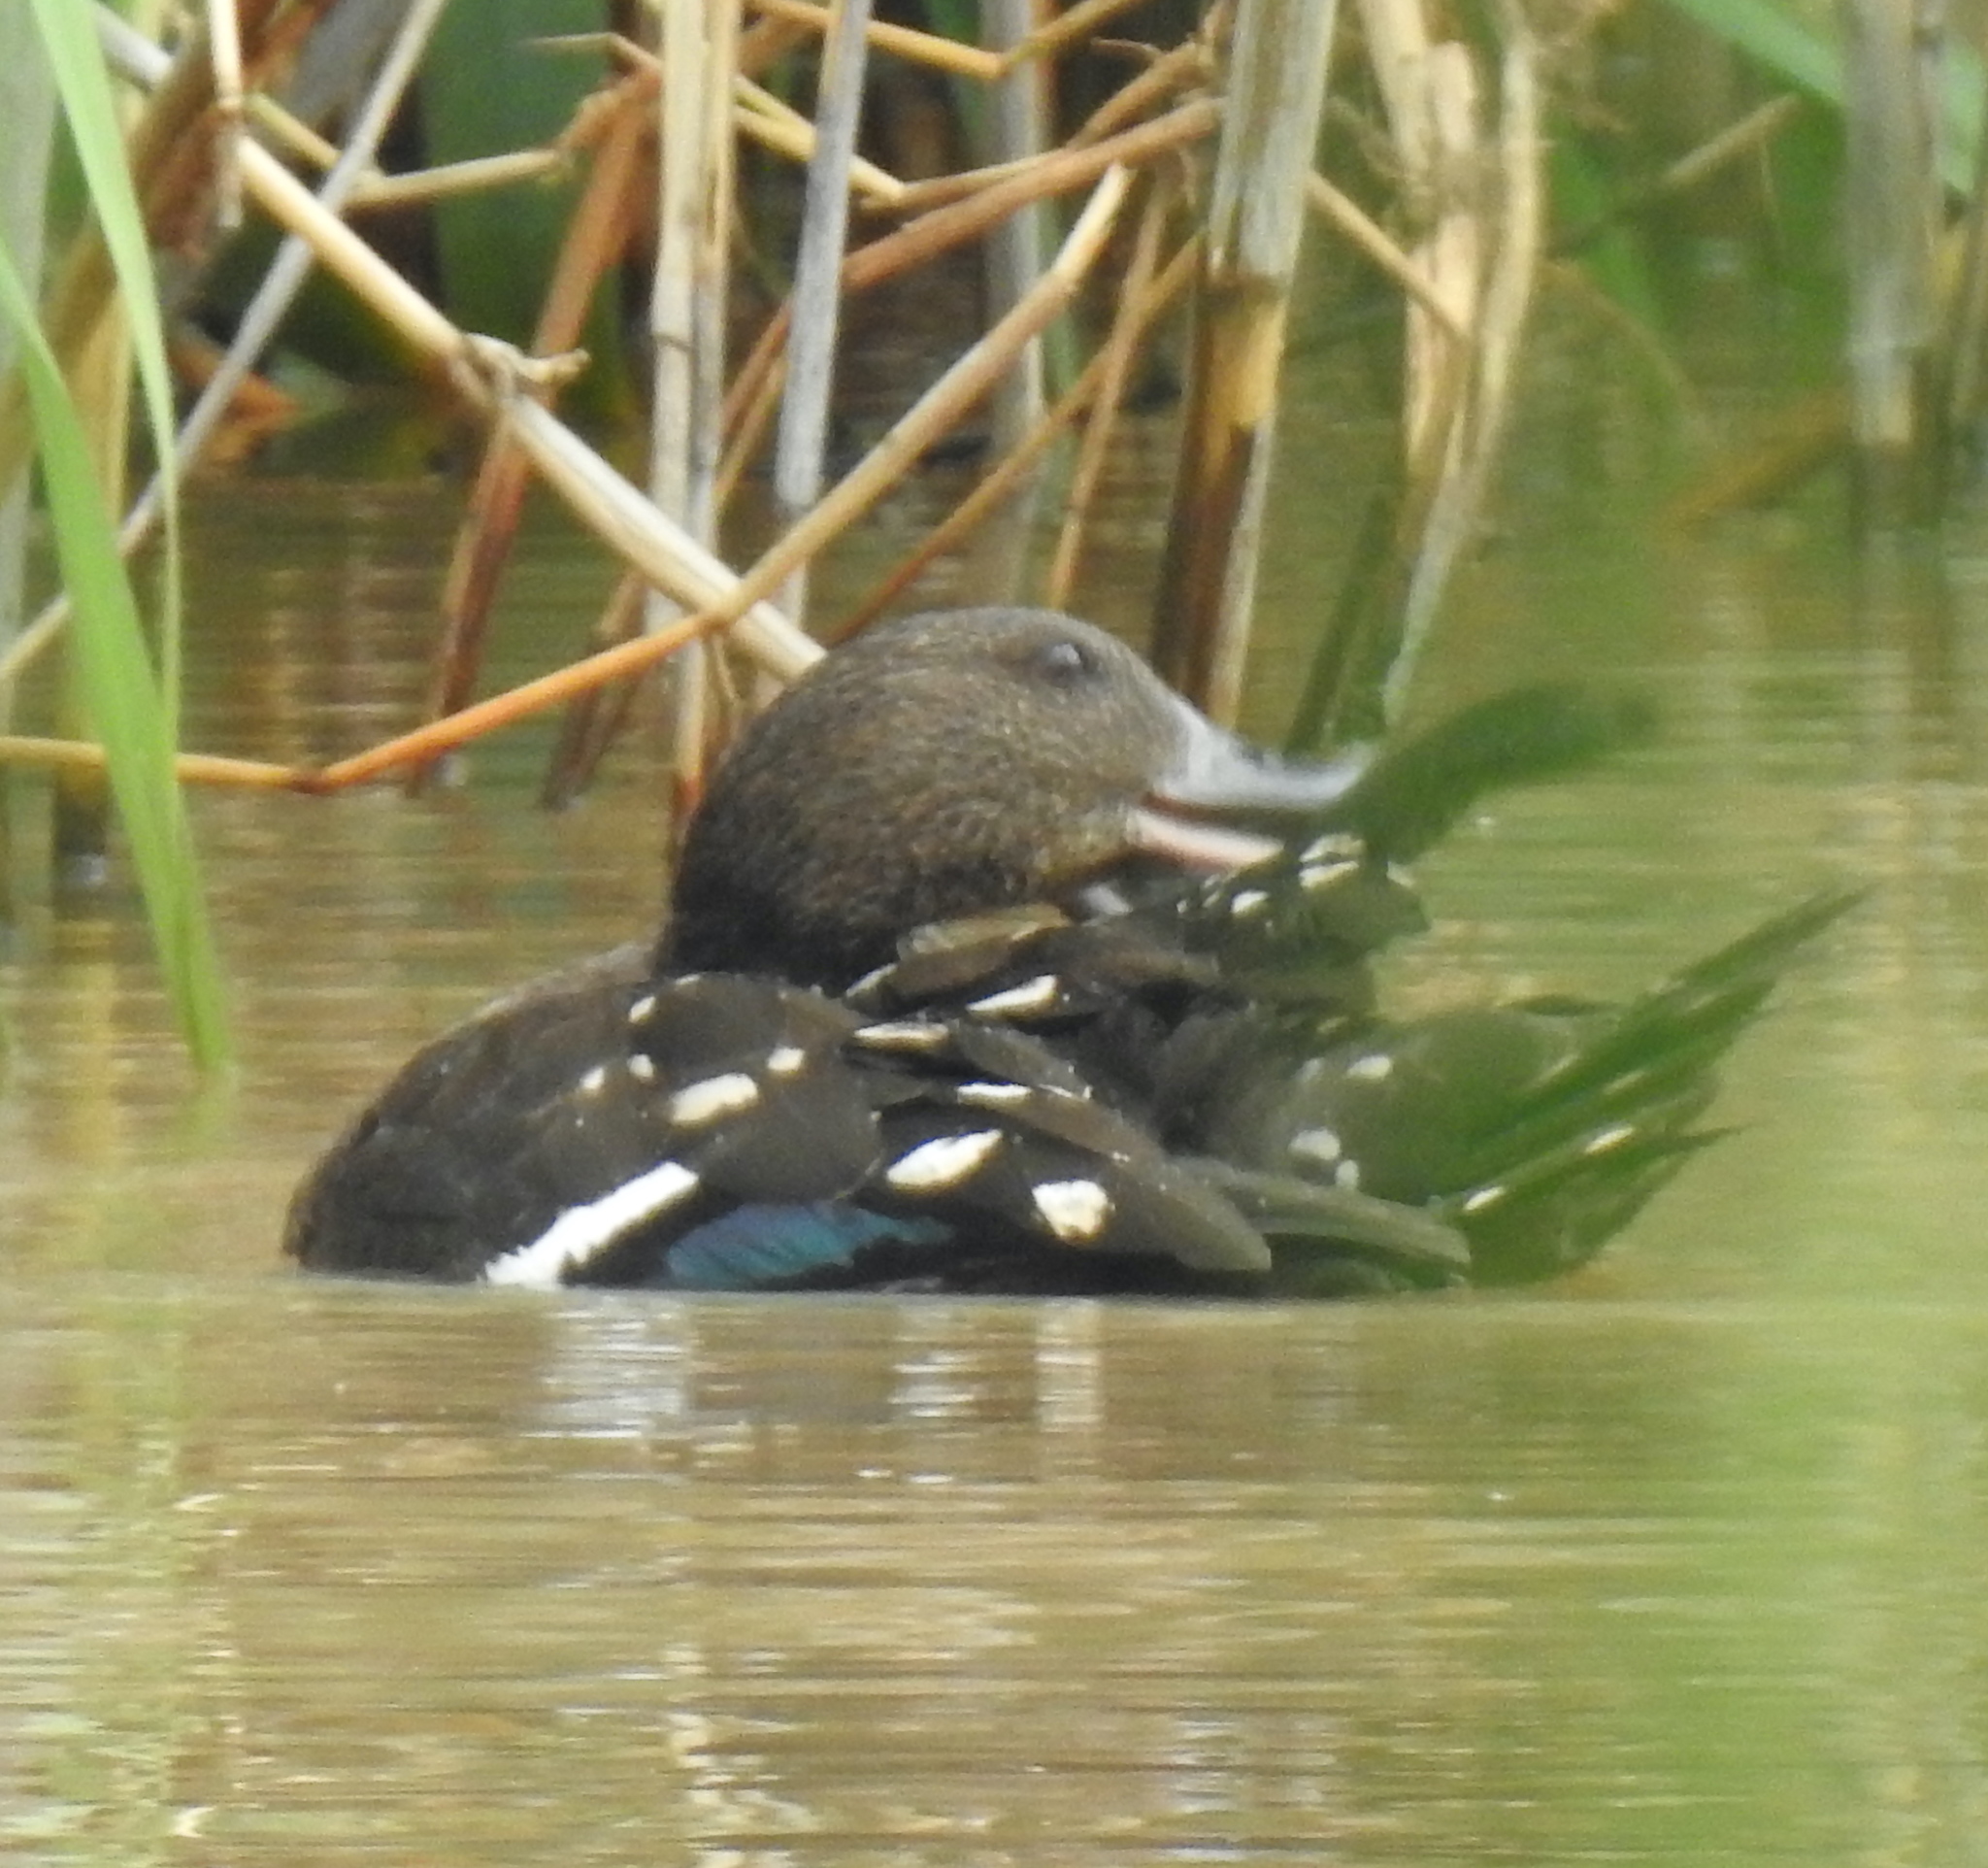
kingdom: Animalia
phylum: Chordata
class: Aves
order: Anseriformes
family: Anatidae
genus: Anas
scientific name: Anas sparsa
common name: African black duck
